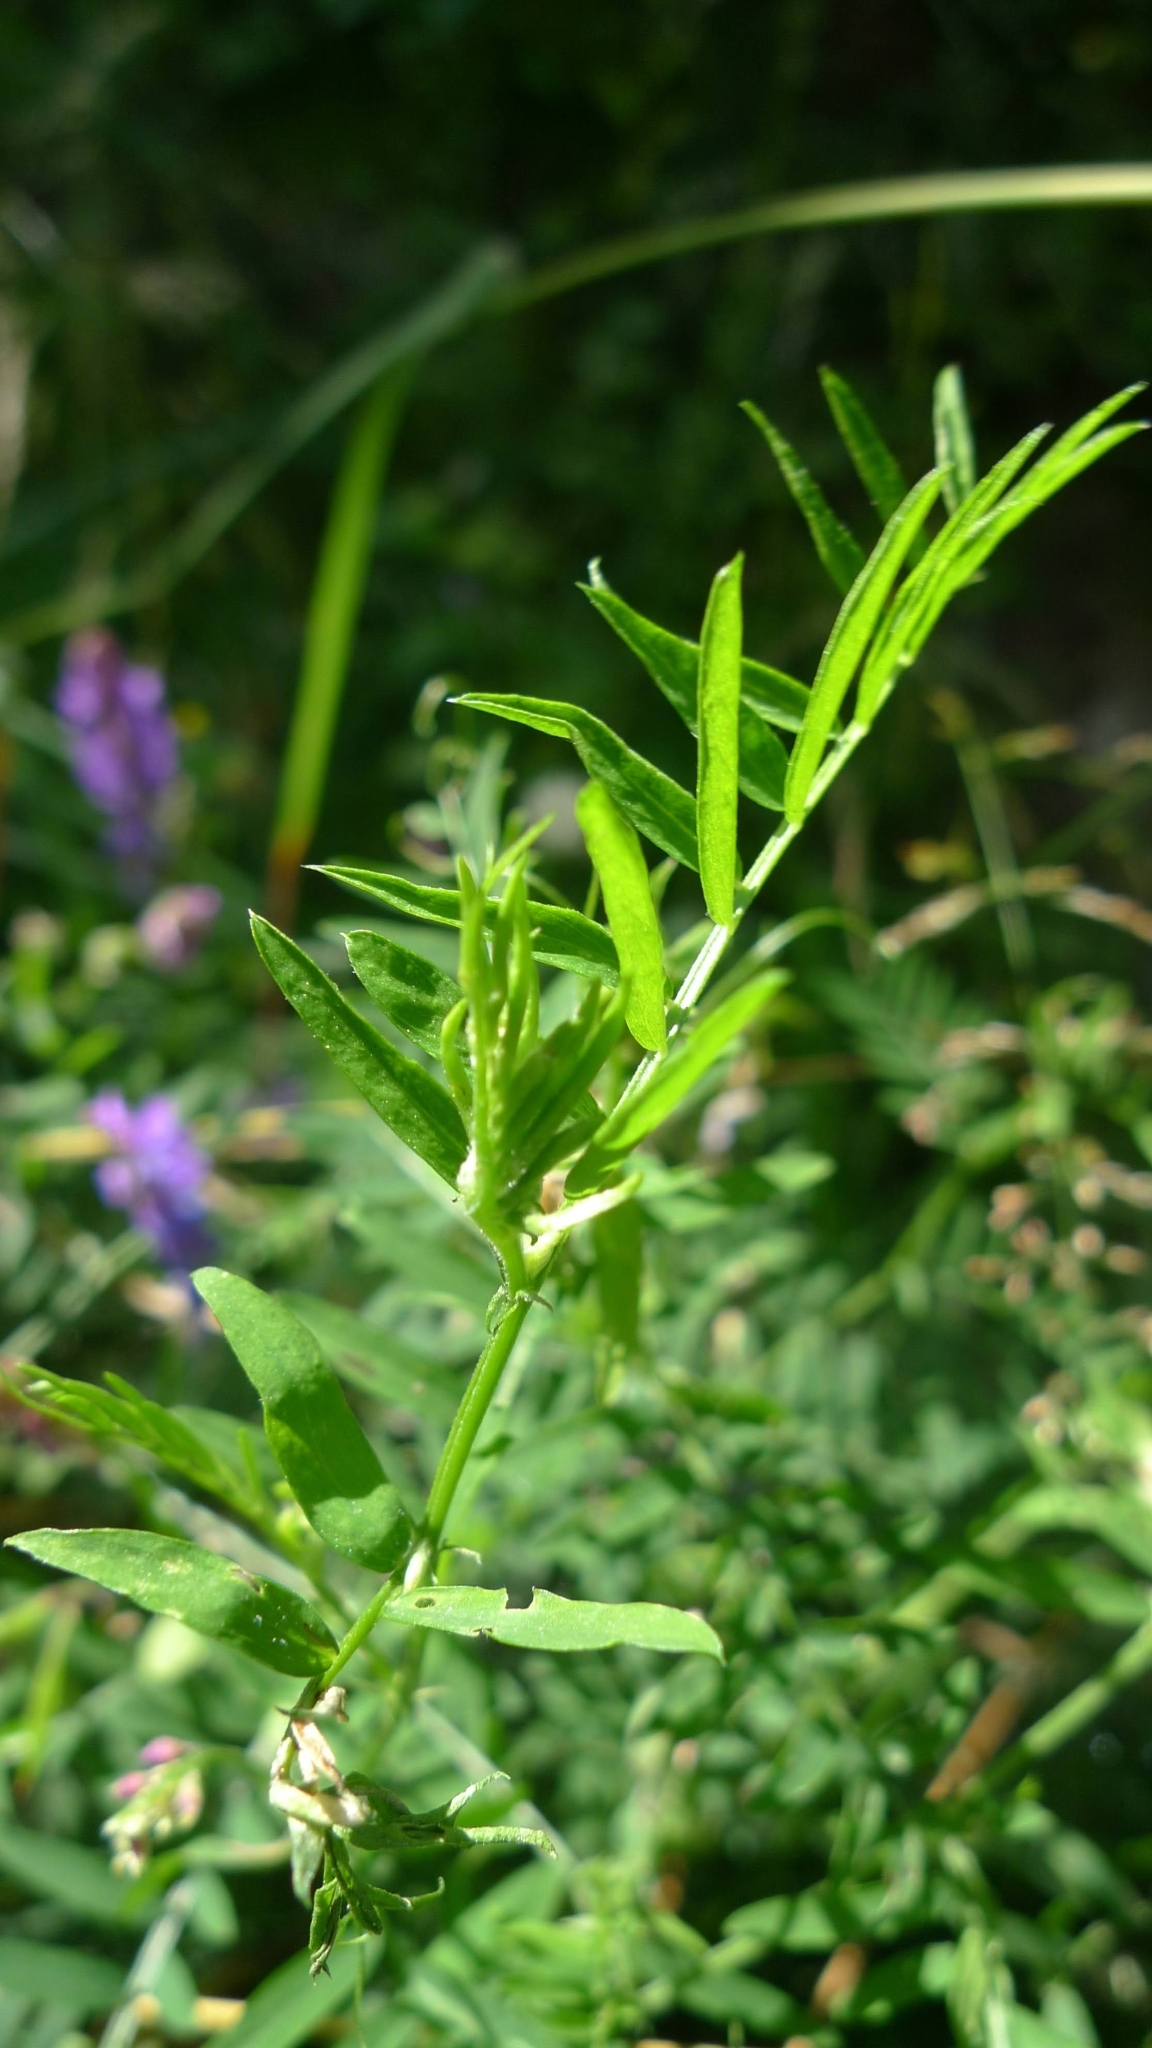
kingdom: Plantae
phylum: Tracheophyta
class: Magnoliopsida
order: Fabales
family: Fabaceae
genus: Vicia
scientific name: Vicia cracca
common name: Bird vetch
